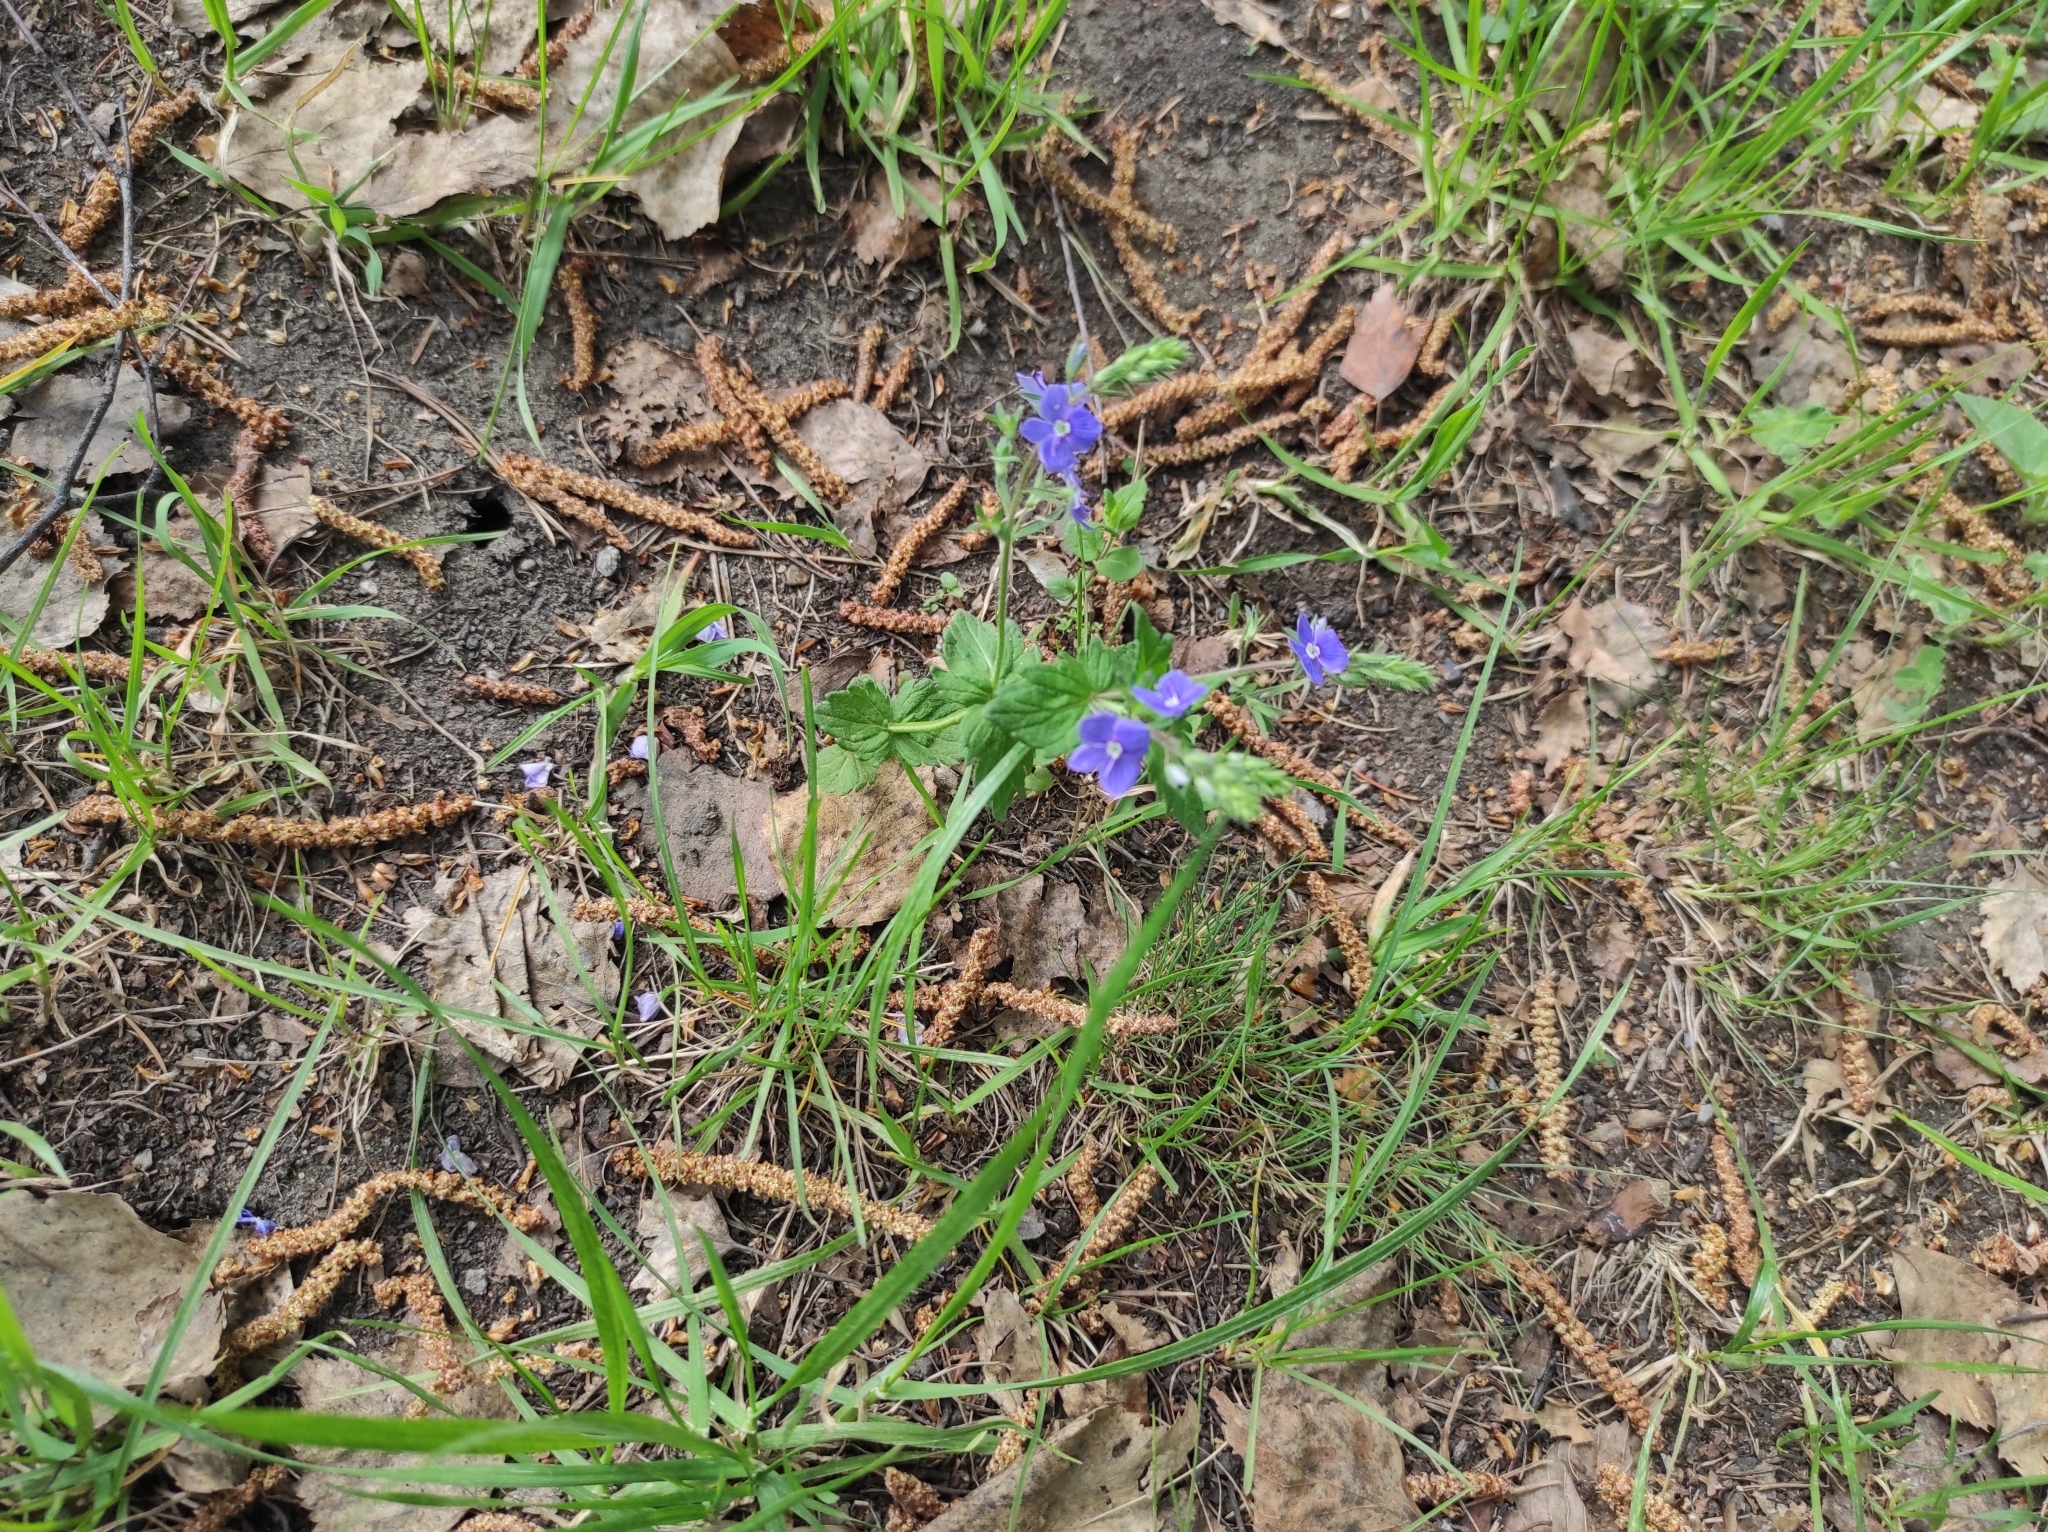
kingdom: Plantae
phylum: Tracheophyta
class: Magnoliopsida
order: Lamiales
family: Plantaginaceae
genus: Veronica
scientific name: Veronica chamaedrys
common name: Germander speedwell
